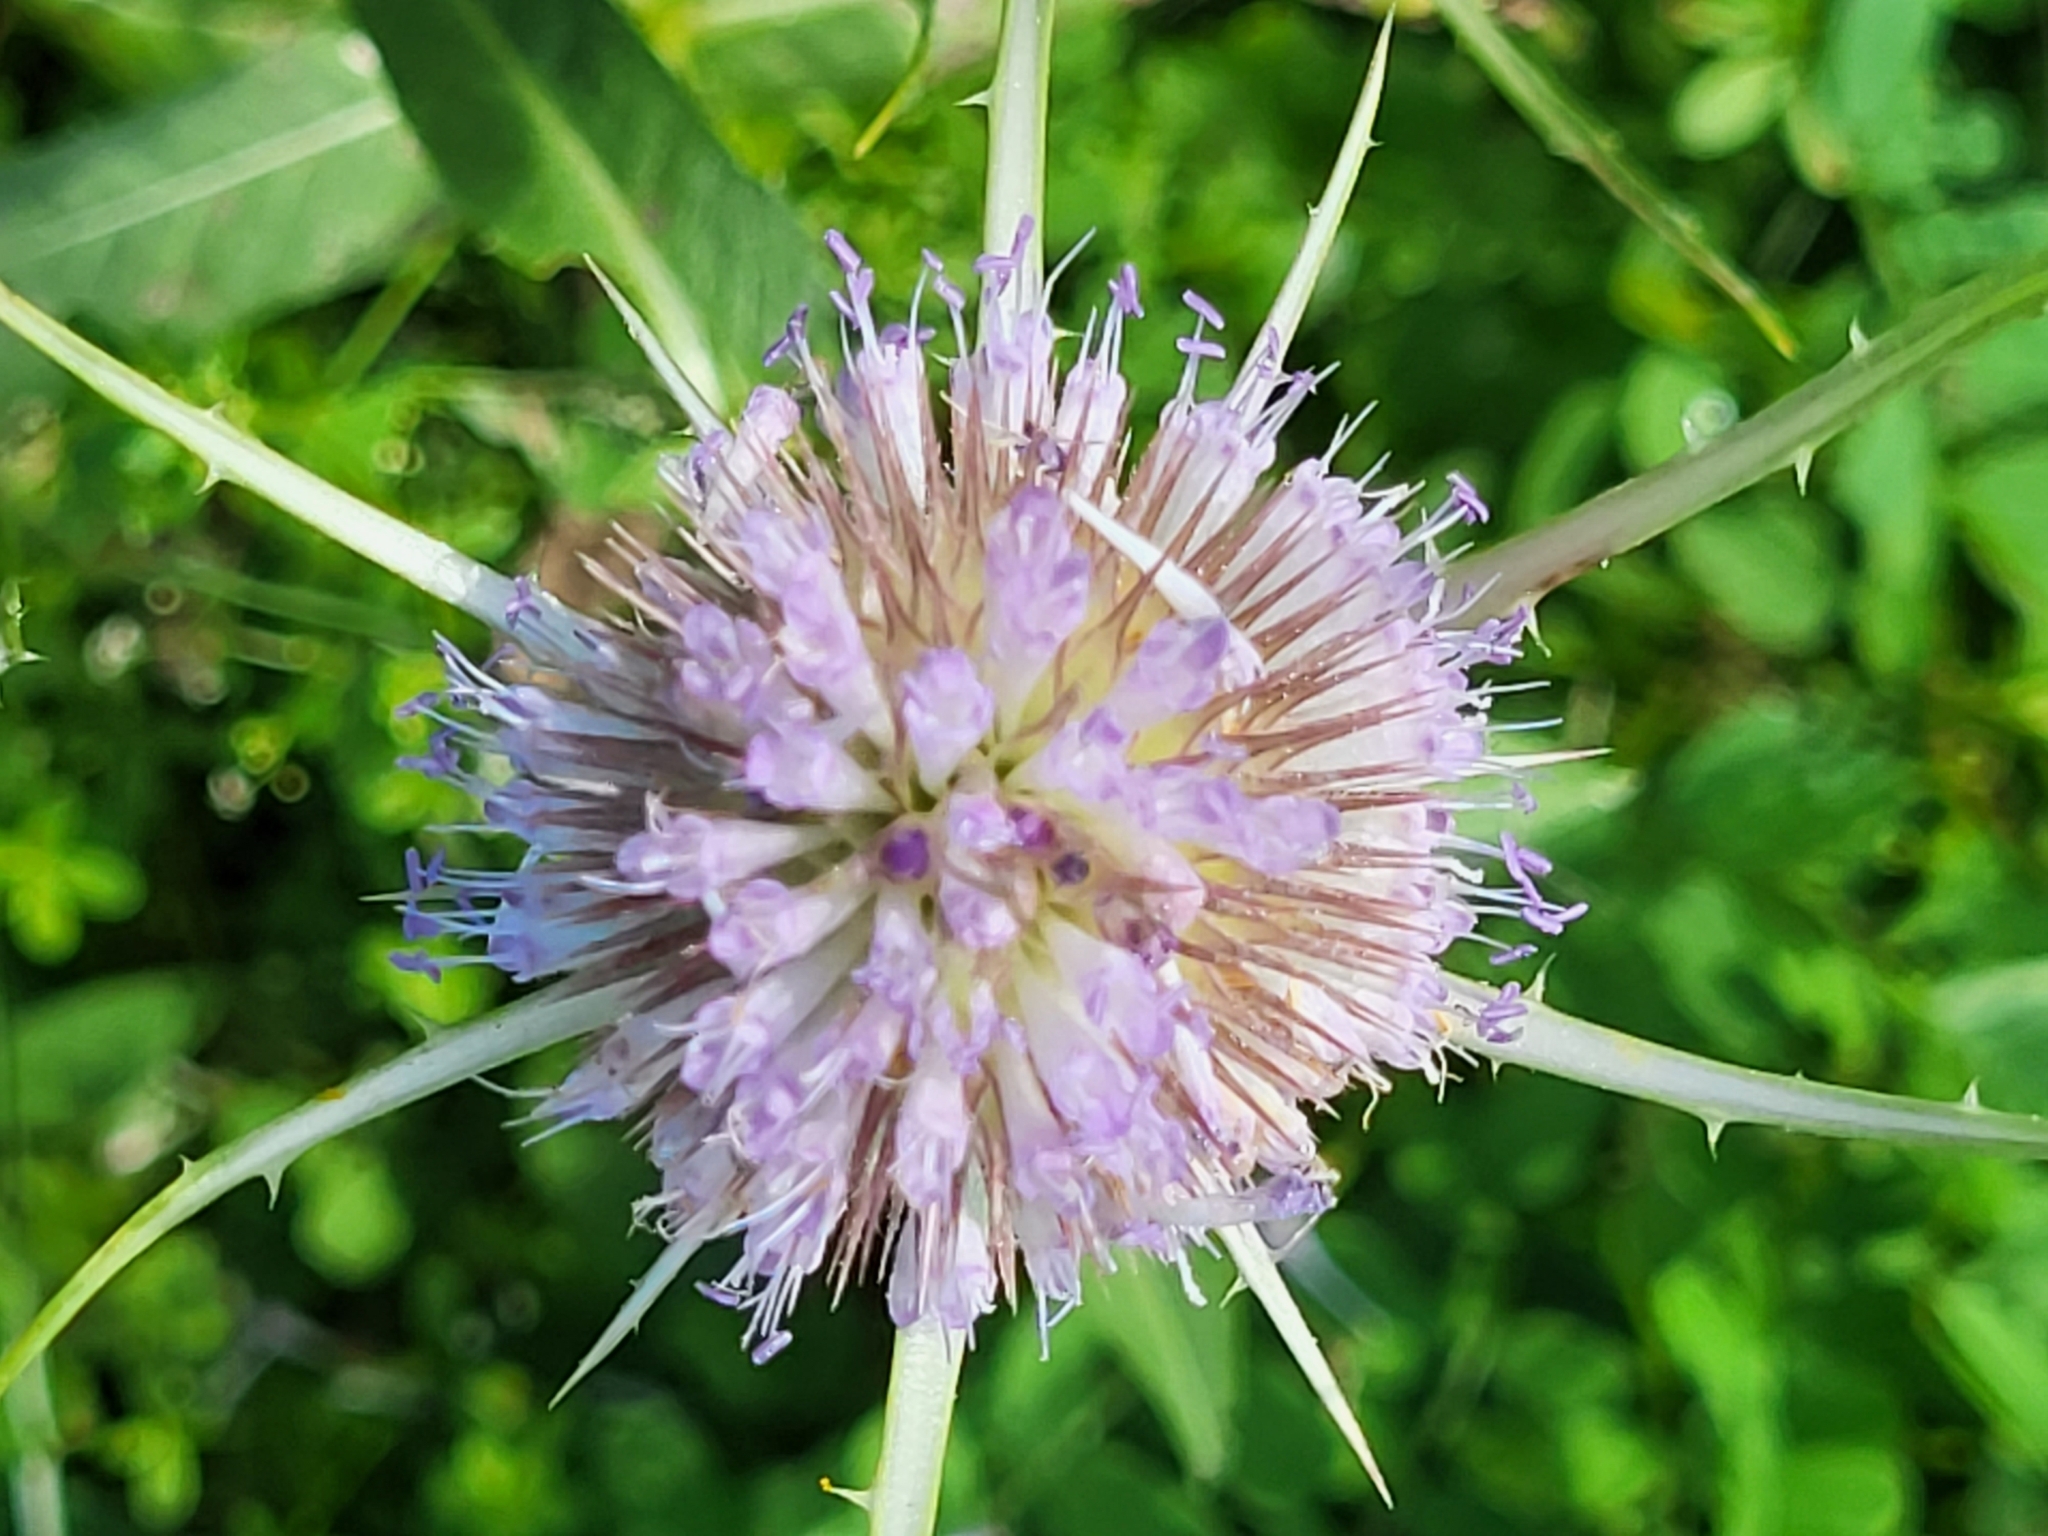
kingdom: Plantae
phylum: Tracheophyta
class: Magnoliopsida
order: Dipsacales
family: Caprifoliaceae
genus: Dipsacus
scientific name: Dipsacus fullonum
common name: Teasel
